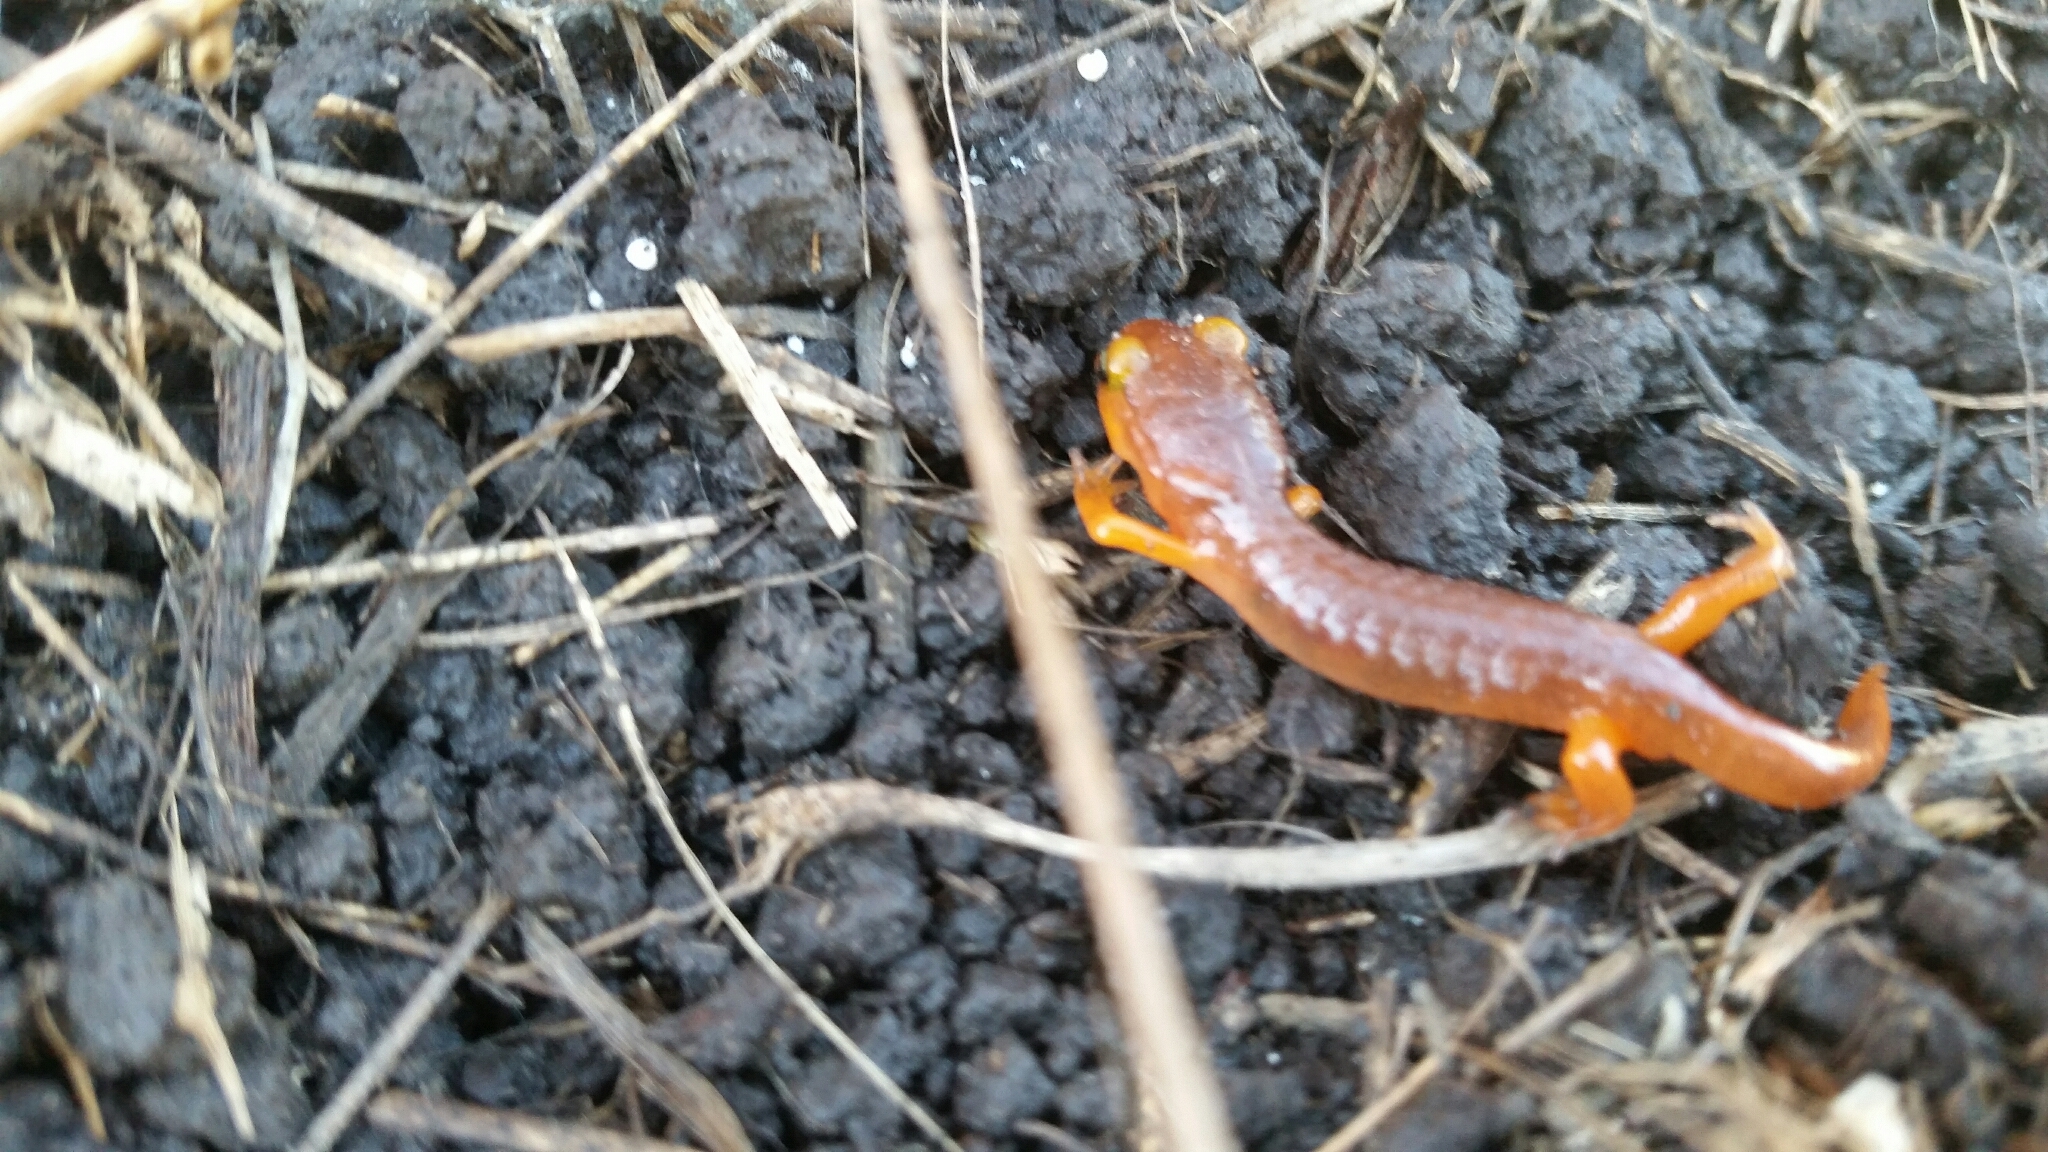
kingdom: Animalia
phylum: Chordata
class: Amphibia
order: Caudata
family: Plethodontidae
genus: Ensatina
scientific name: Ensatina eschscholtzii
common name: Ensatina
